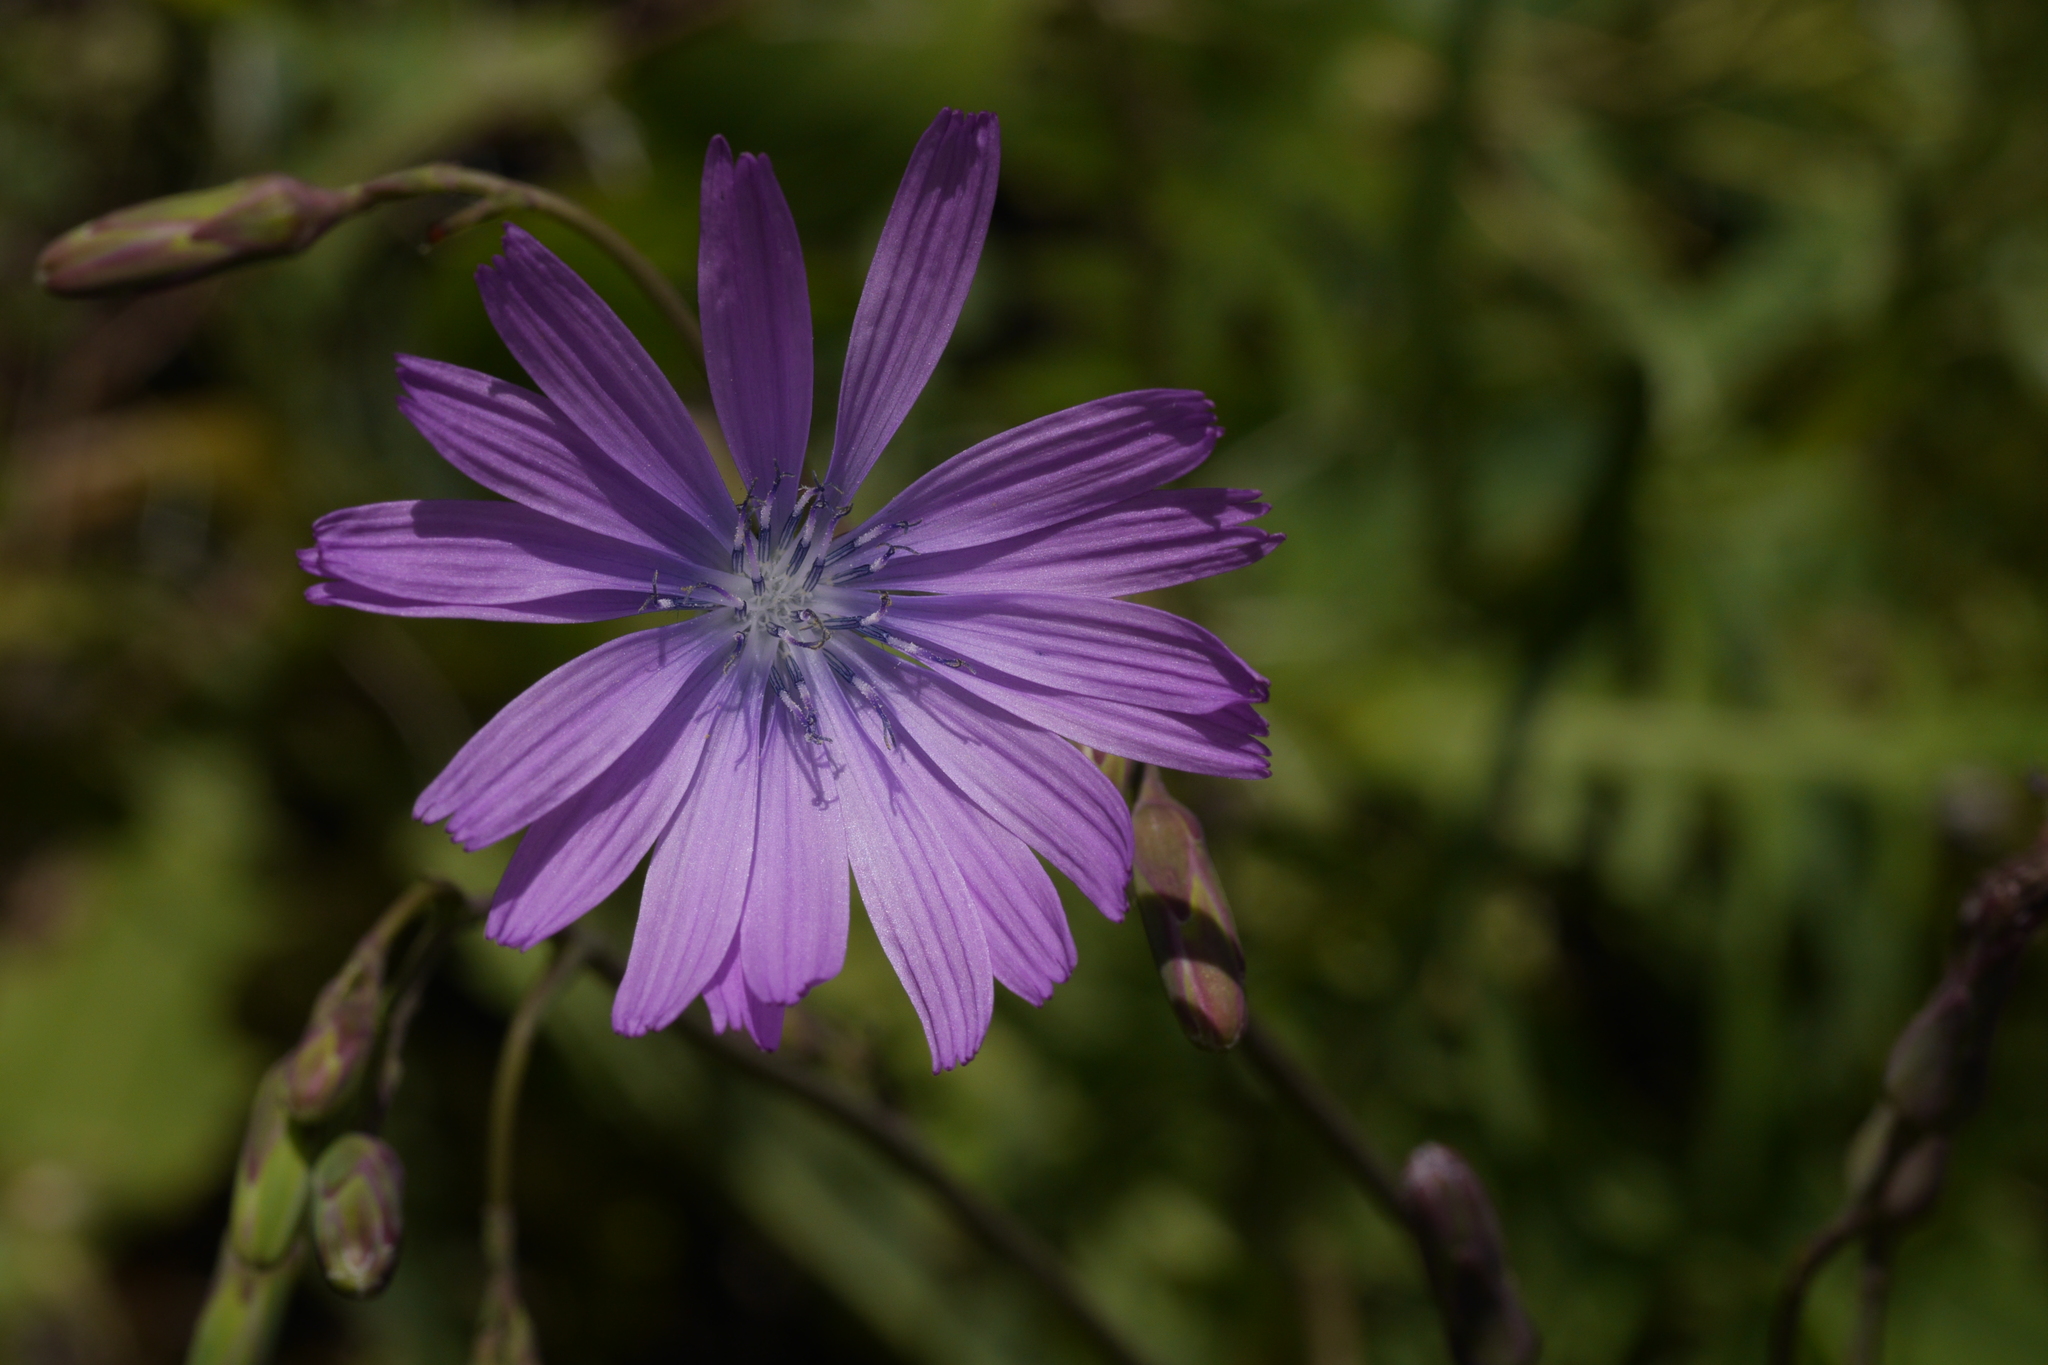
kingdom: Plantae
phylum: Tracheophyta
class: Magnoliopsida
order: Asterales
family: Asteraceae
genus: Lactuca
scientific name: Lactuca perennis
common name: Mountain lettuce
